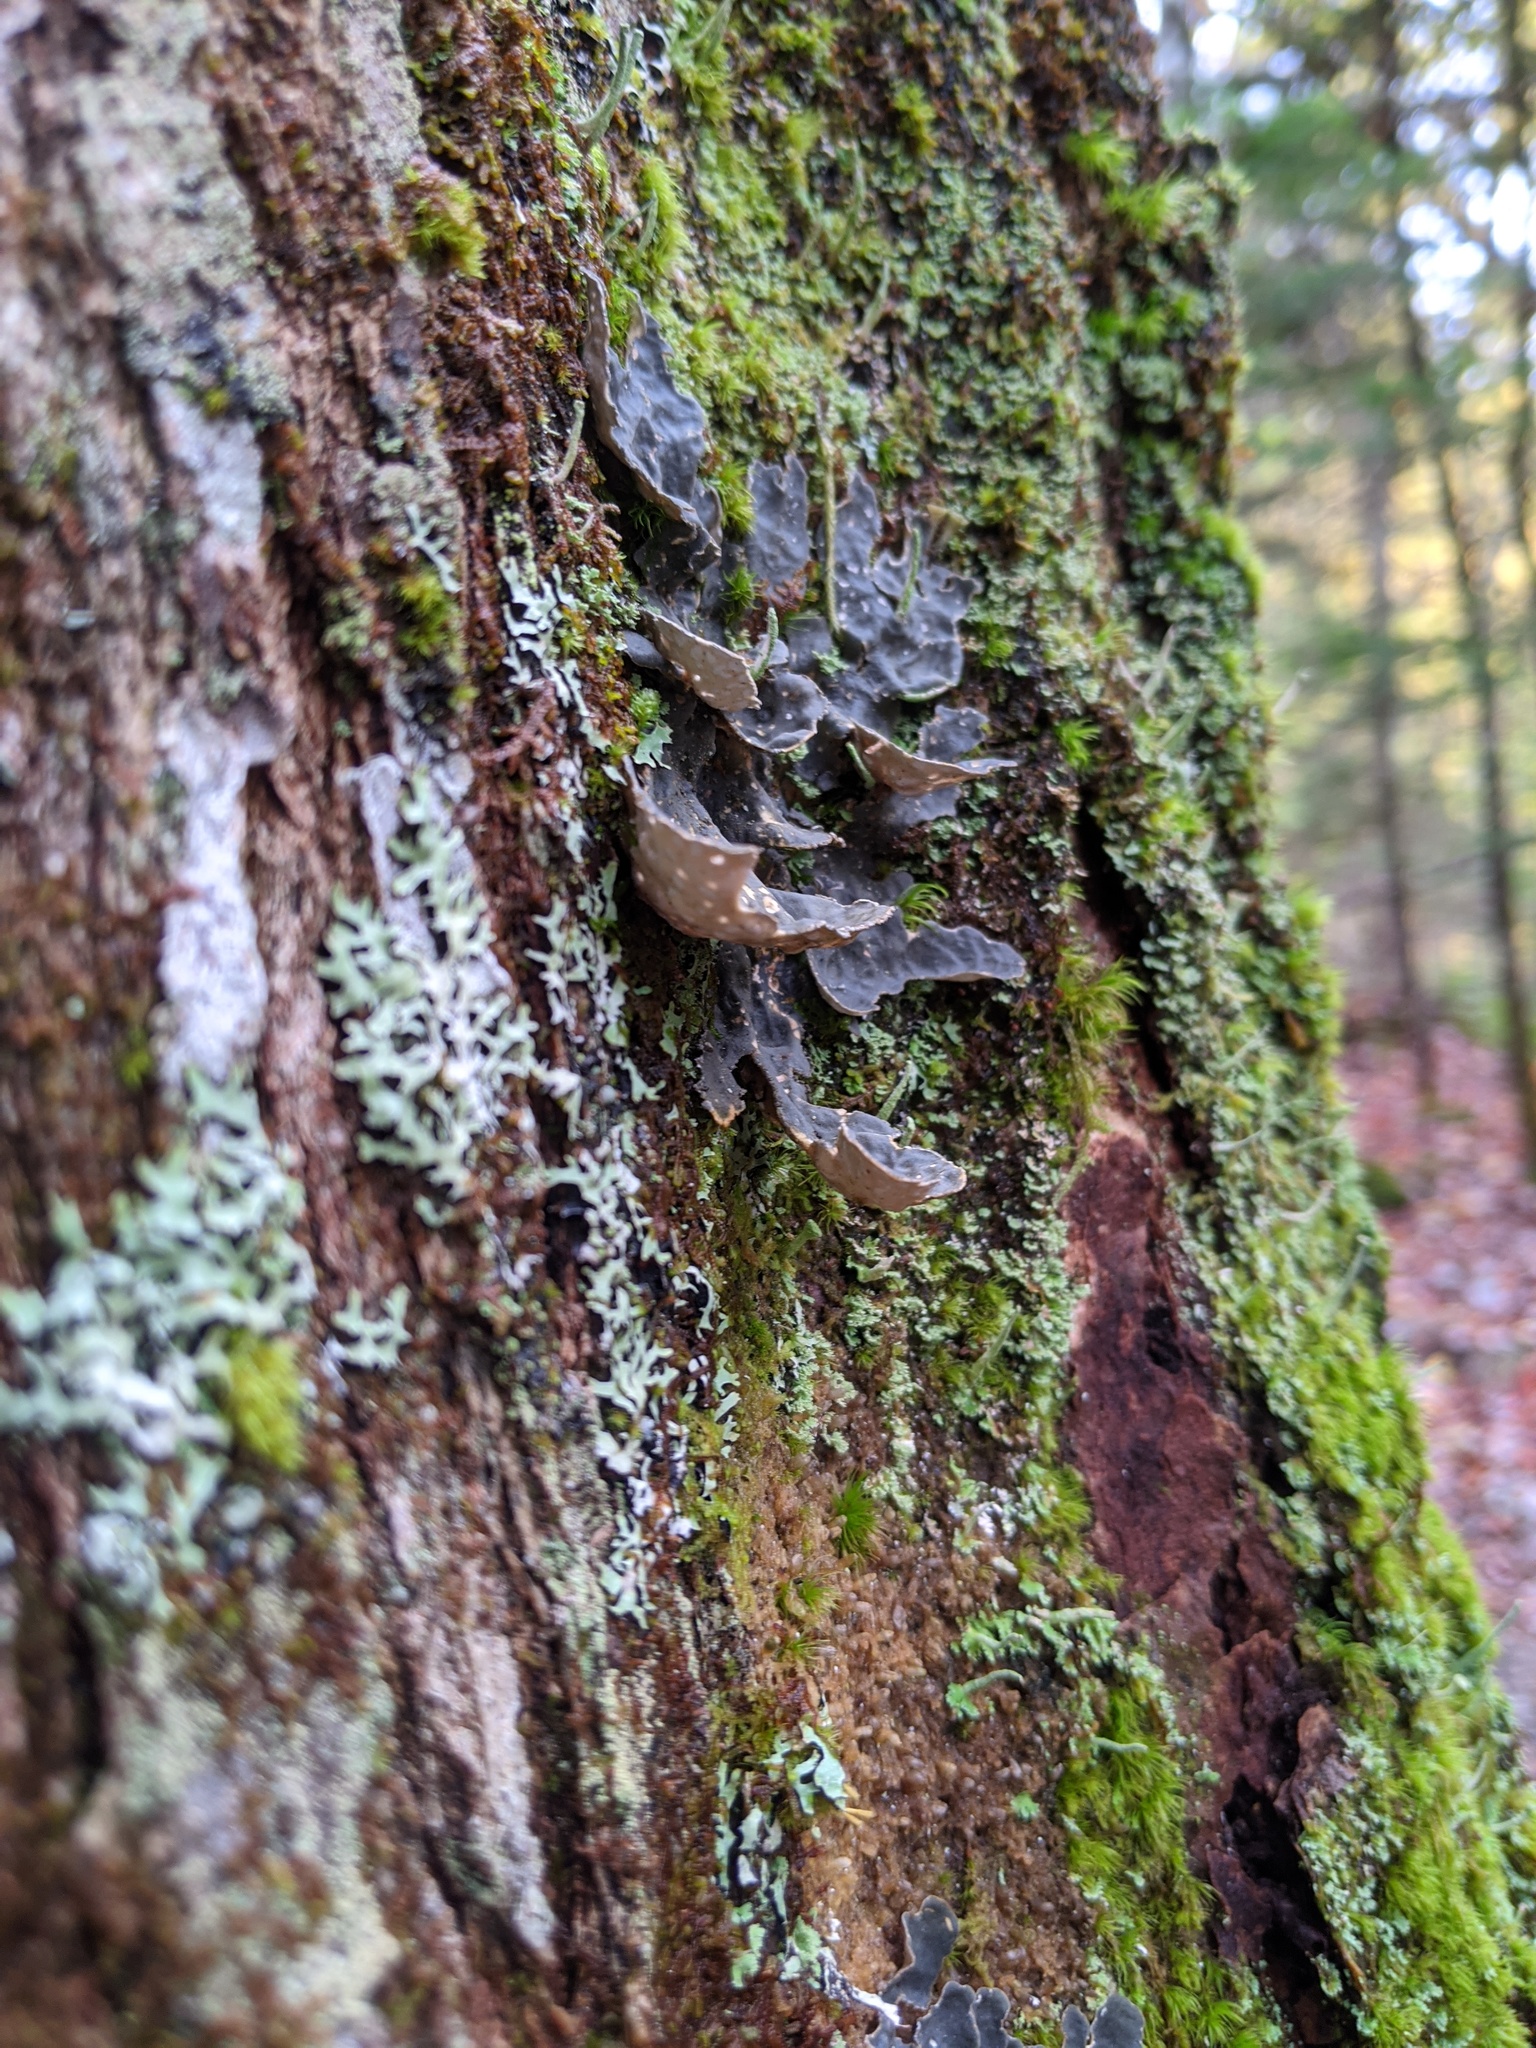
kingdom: Fungi
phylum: Ascomycota
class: Lecanoromycetes
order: Peltigerales
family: Lobariaceae
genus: Lobarina
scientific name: Lobarina scrobiculata
